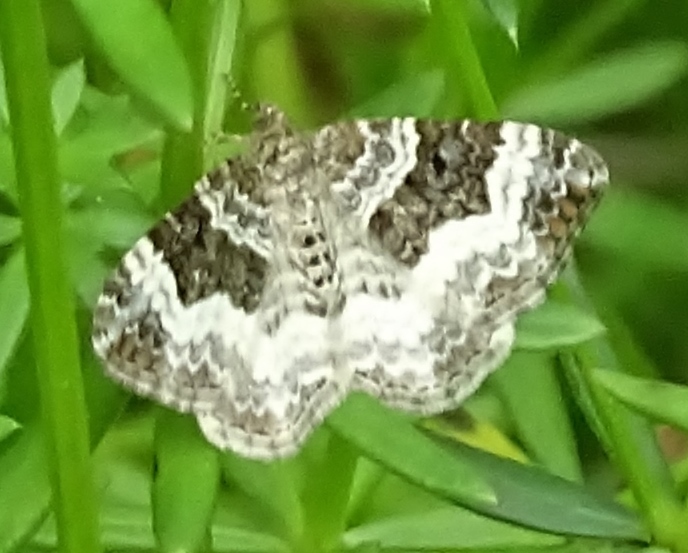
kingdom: Animalia
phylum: Arthropoda
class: Insecta
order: Lepidoptera
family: Geometridae
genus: Epirrhoe
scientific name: Epirrhoe alternata
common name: Common carpet
